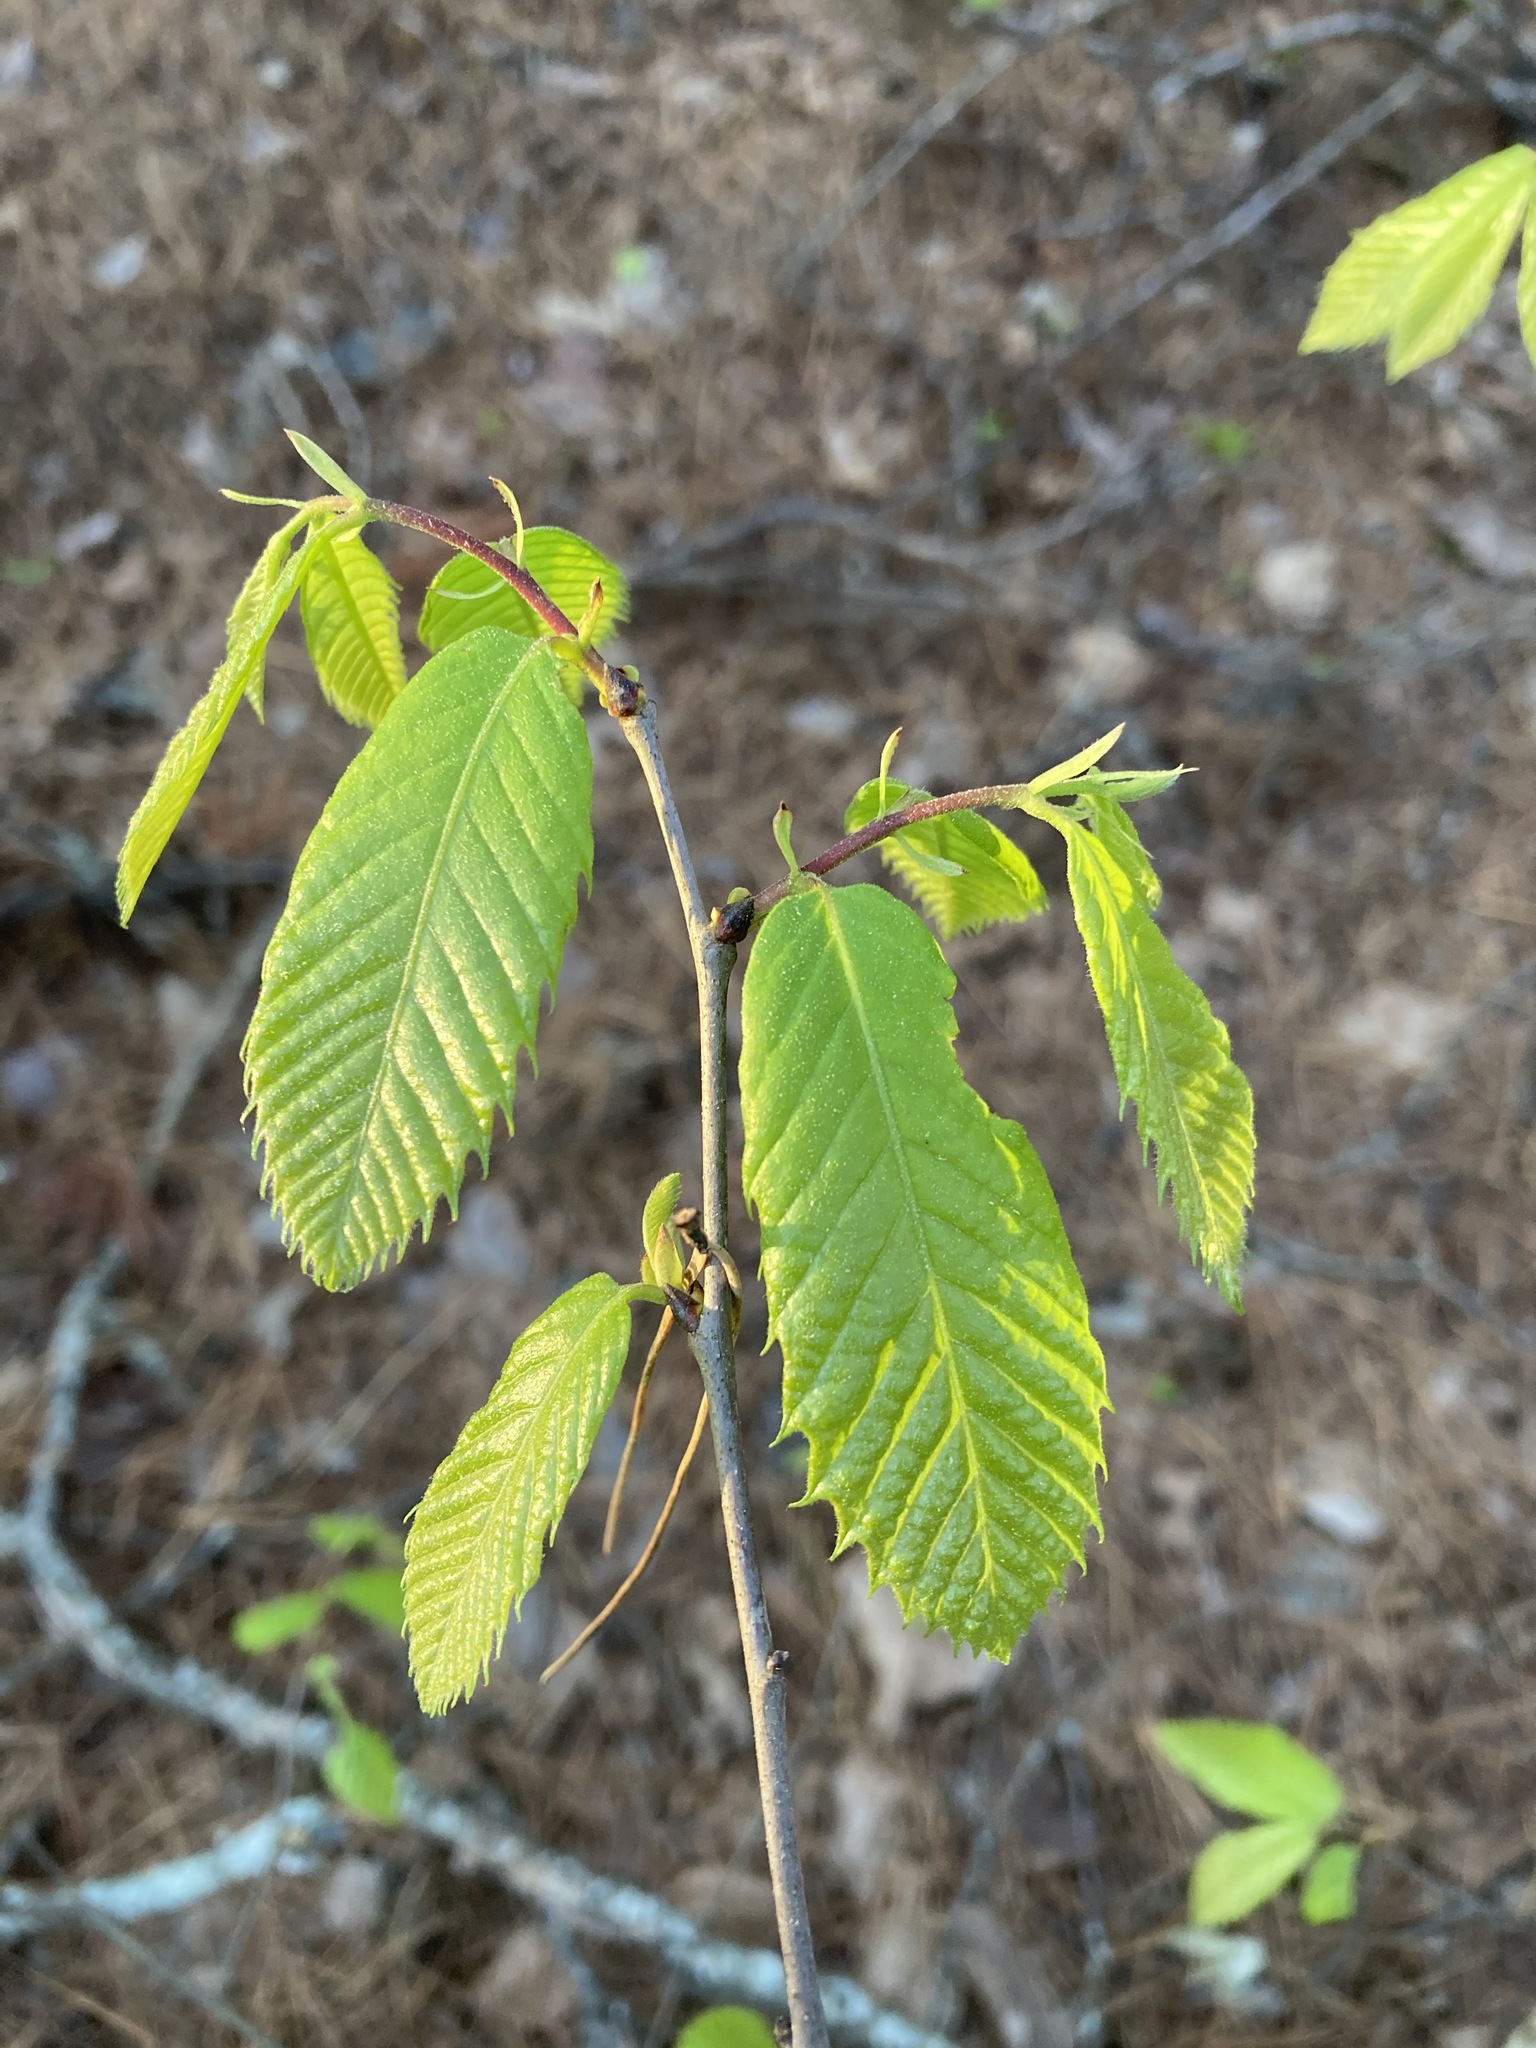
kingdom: Plantae
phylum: Tracheophyta
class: Magnoliopsida
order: Fagales
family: Fagaceae
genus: Castanea
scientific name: Castanea ozarkensis
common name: Ozark chinkapin
